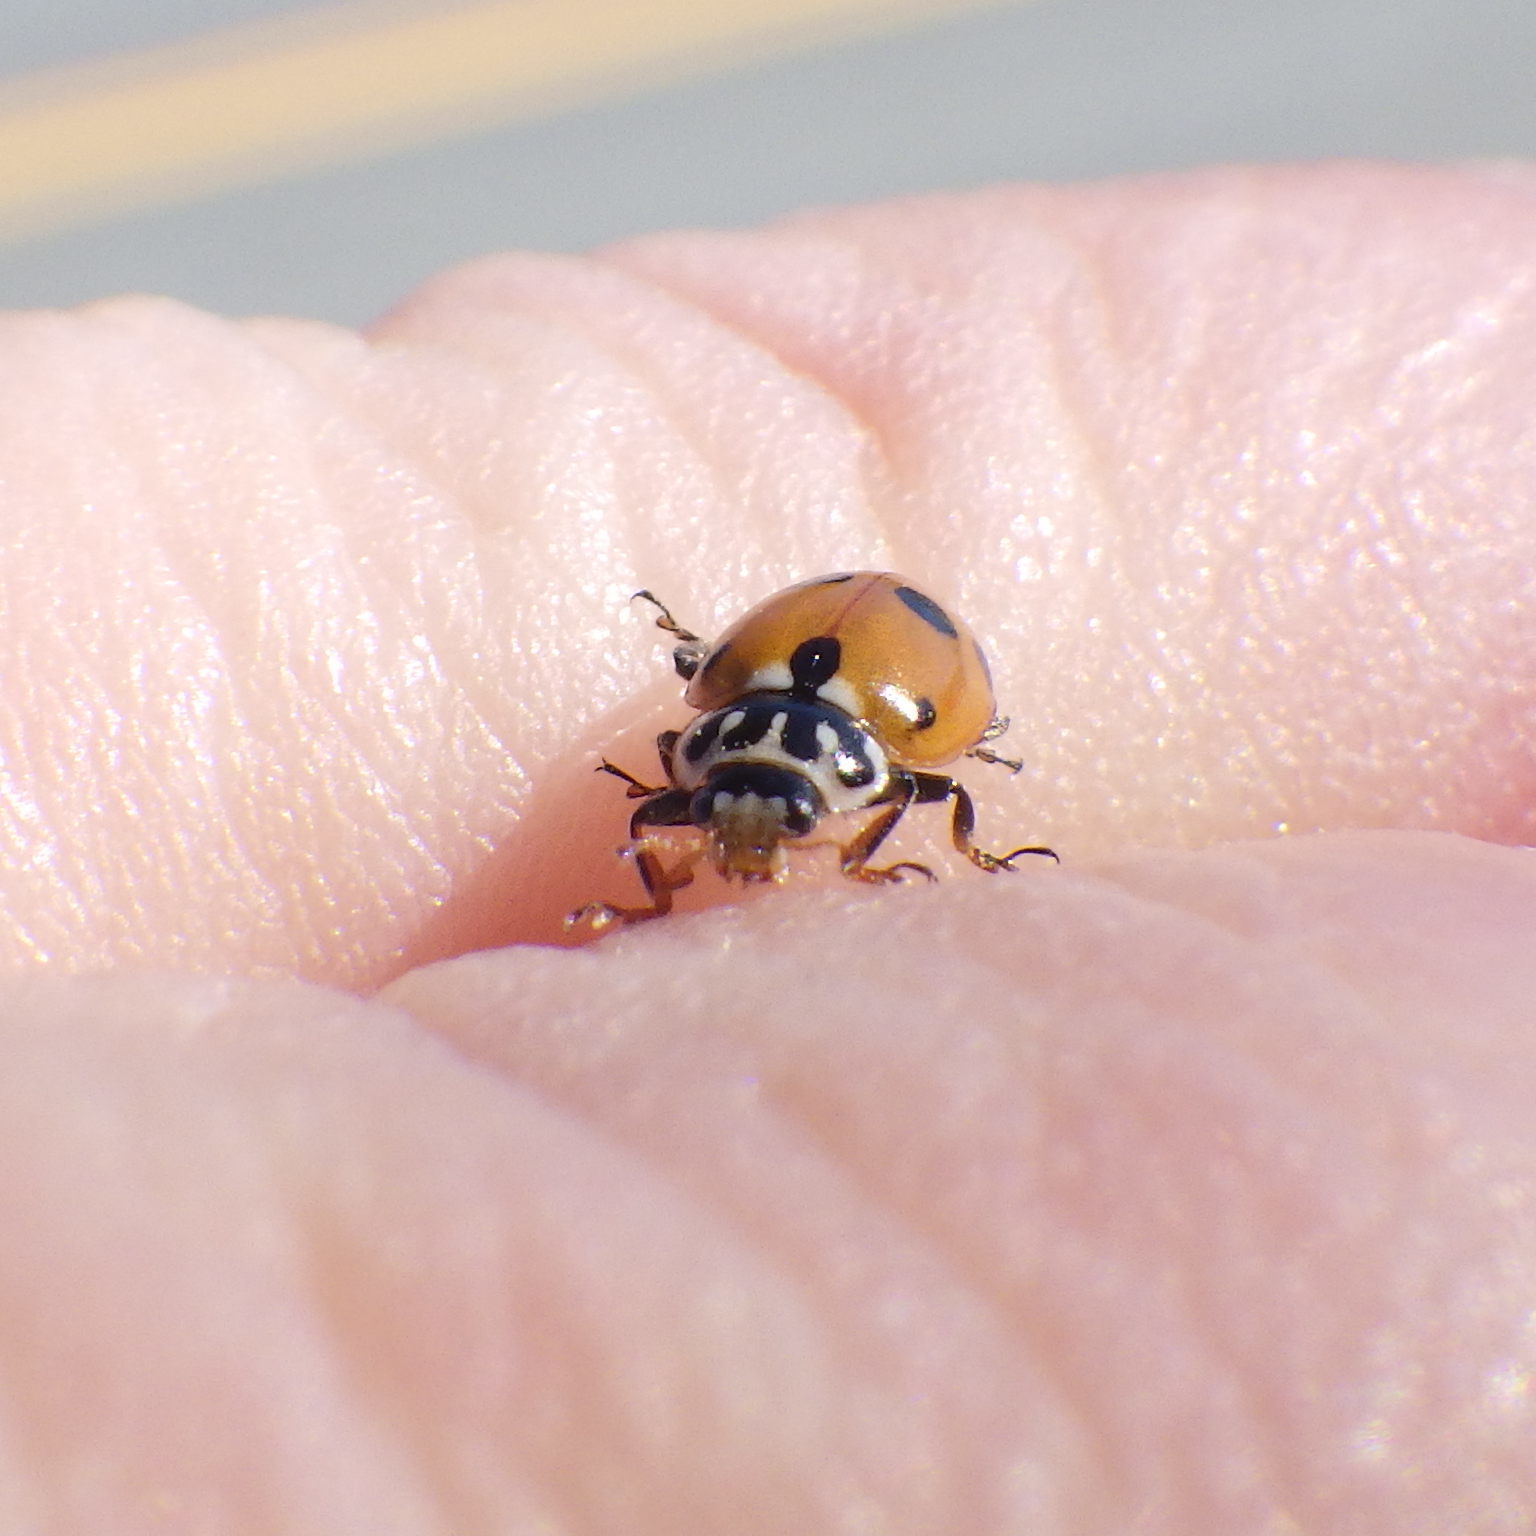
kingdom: Animalia
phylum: Arthropoda
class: Insecta
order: Coleoptera
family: Coccinellidae
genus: Hippodamia
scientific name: Hippodamia variegata
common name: Ladybird beetle
